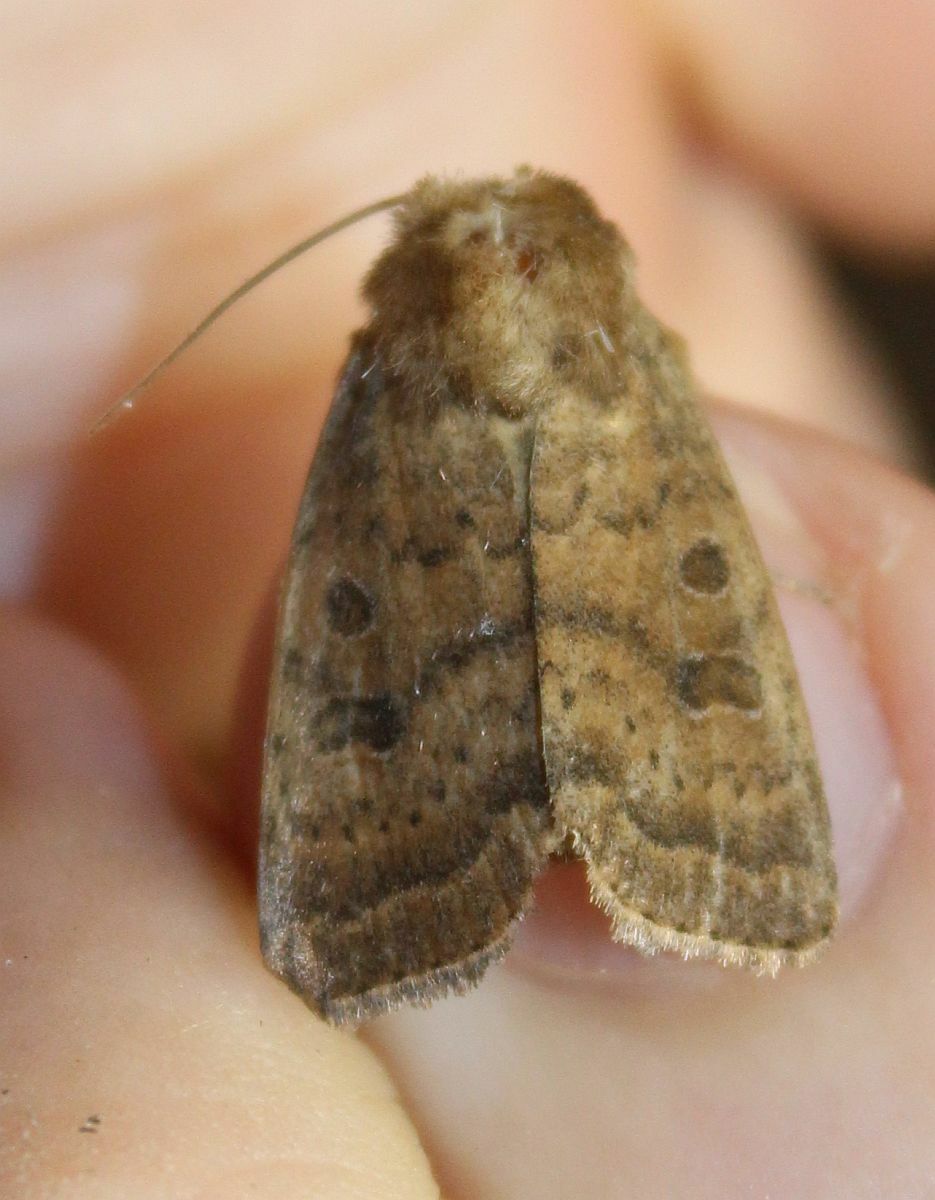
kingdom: Animalia
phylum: Arthropoda
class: Insecta
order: Lepidoptera
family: Noctuidae
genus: Hoplodrina
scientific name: Hoplodrina octogenaria
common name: Uncertain
